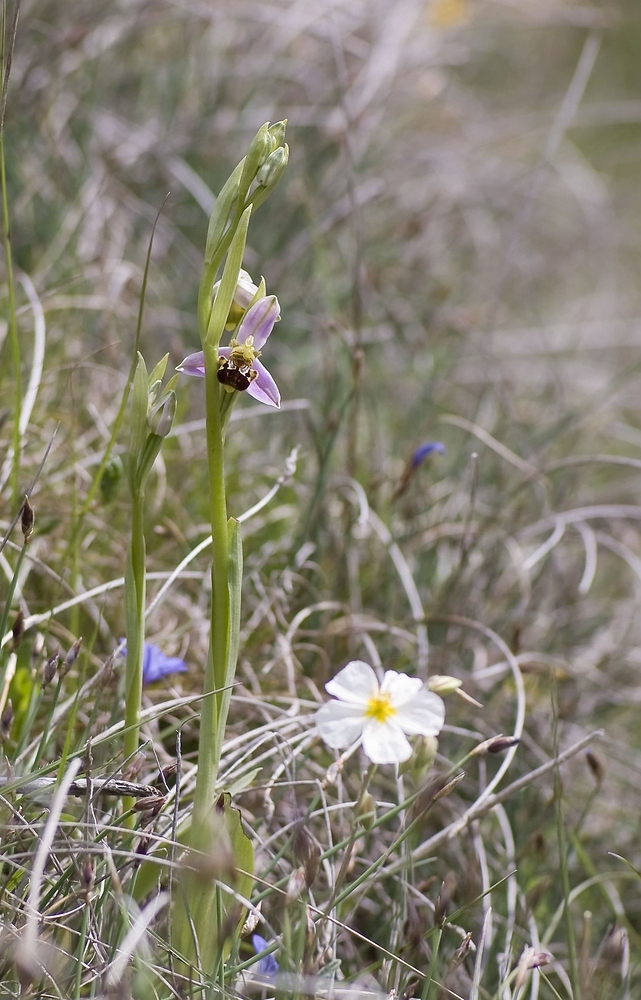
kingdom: Plantae
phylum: Tracheophyta
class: Liliopsida
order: Asparagales
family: Orchidaceae
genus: Ophrys
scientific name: Ophrys apifera
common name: Bee orchid
